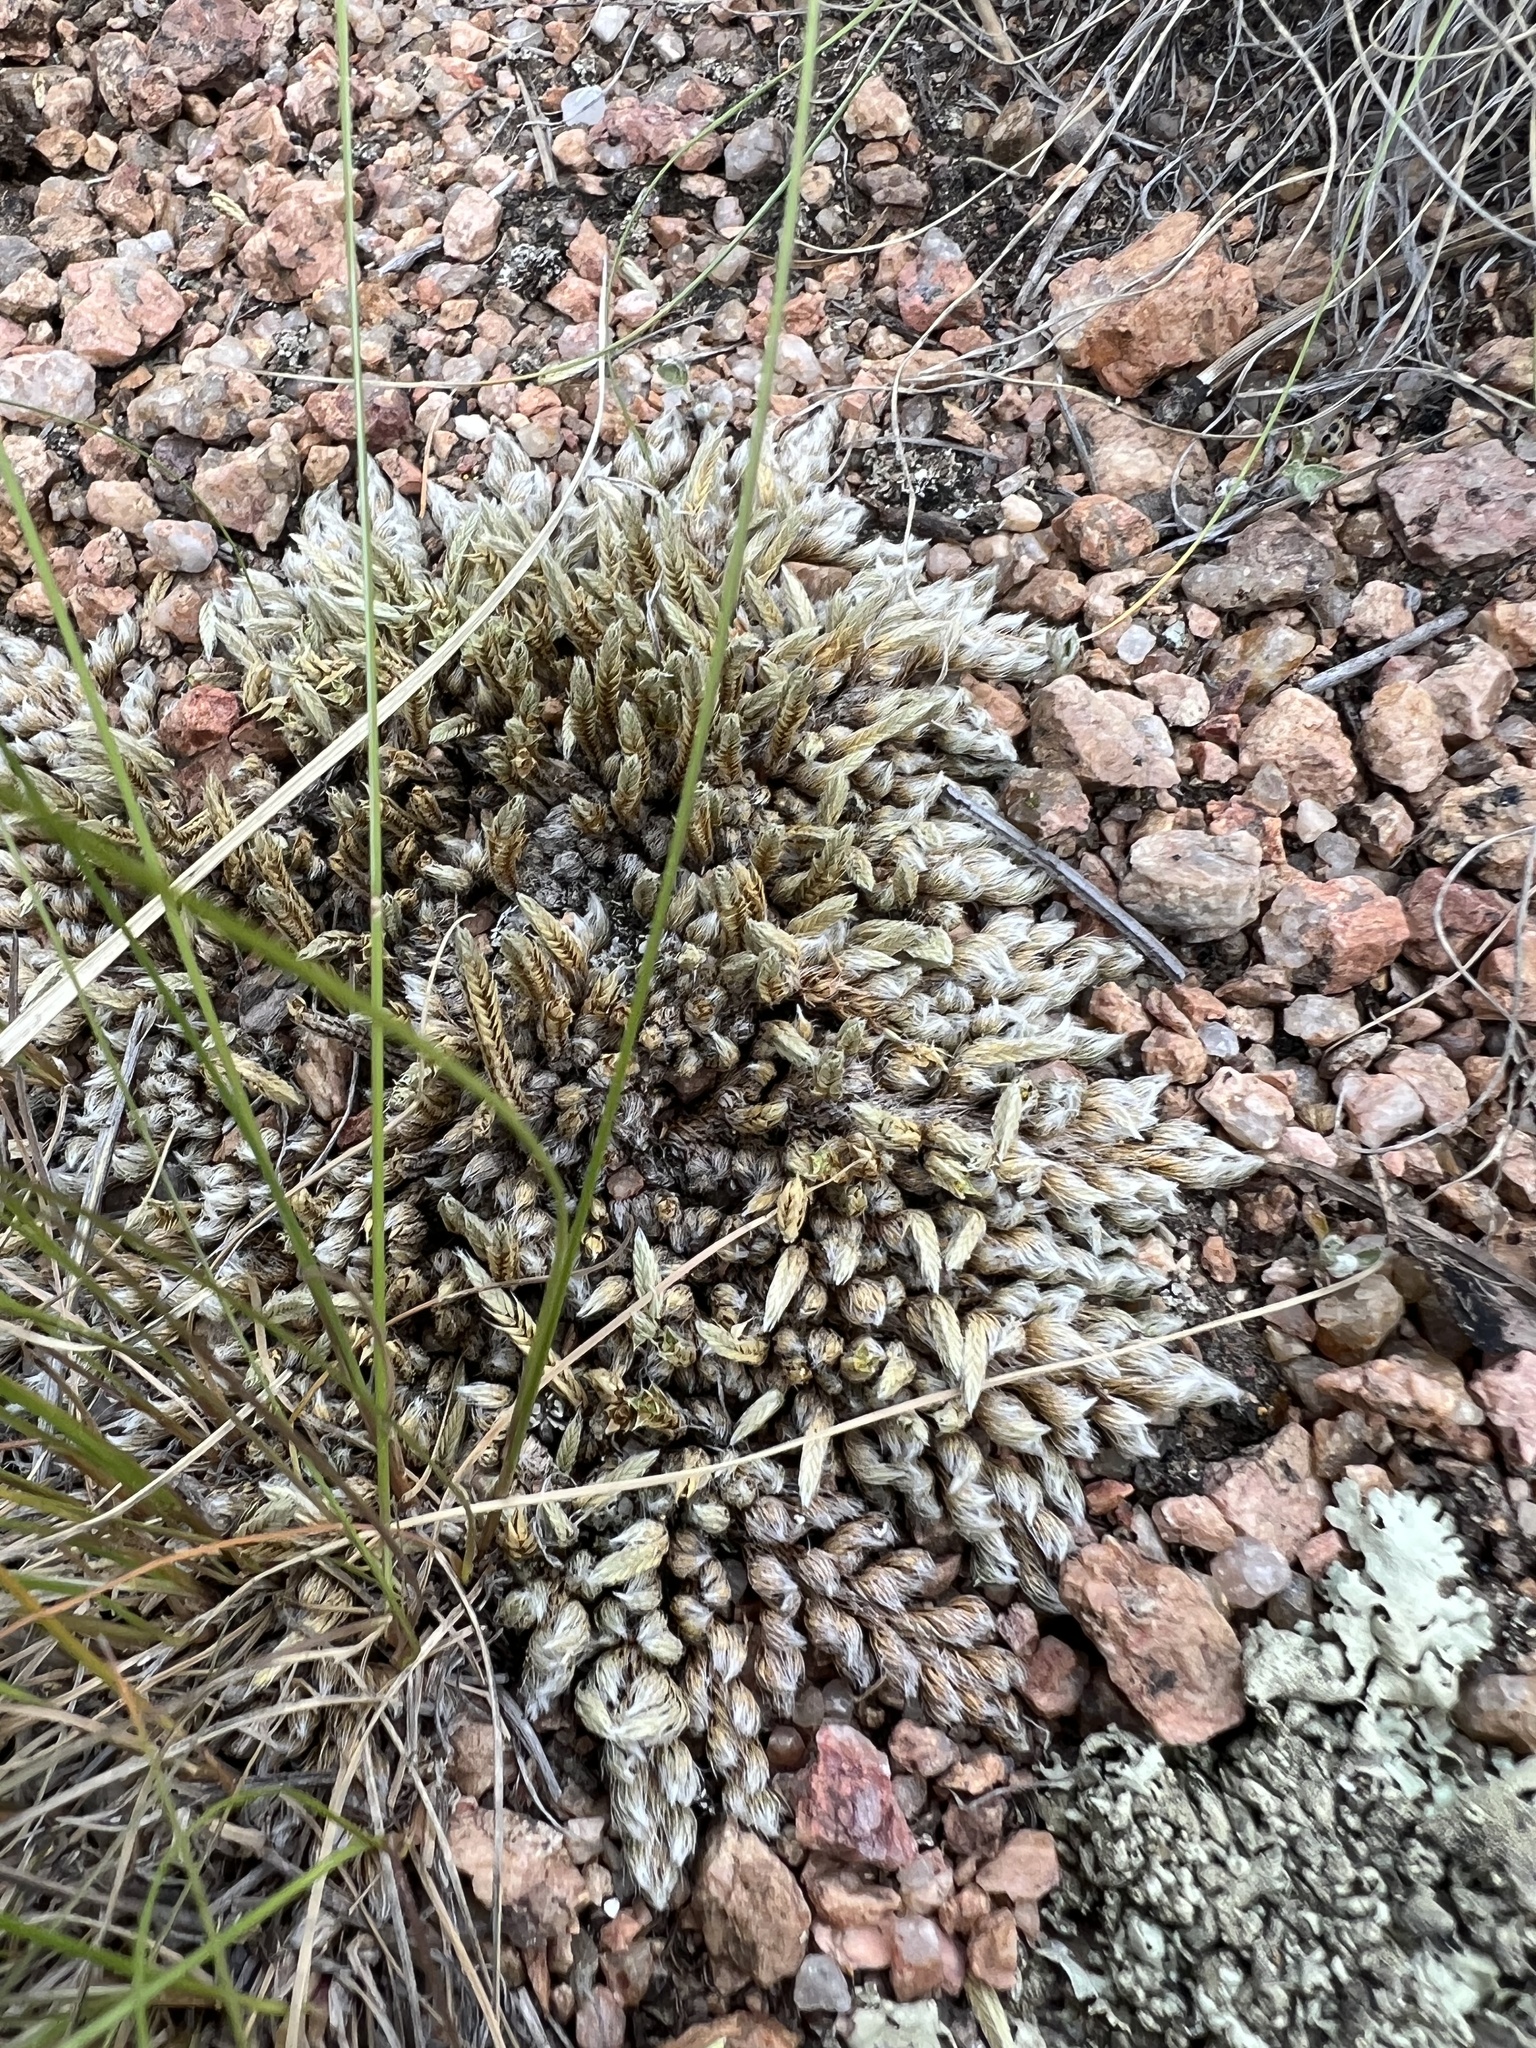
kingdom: Plantae
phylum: Tracheophyta
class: Lycopodiopsida
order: Selaginellales
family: Selaginellaceae
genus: Selaginella
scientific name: Selaginella densa
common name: Mountain spike-moss
